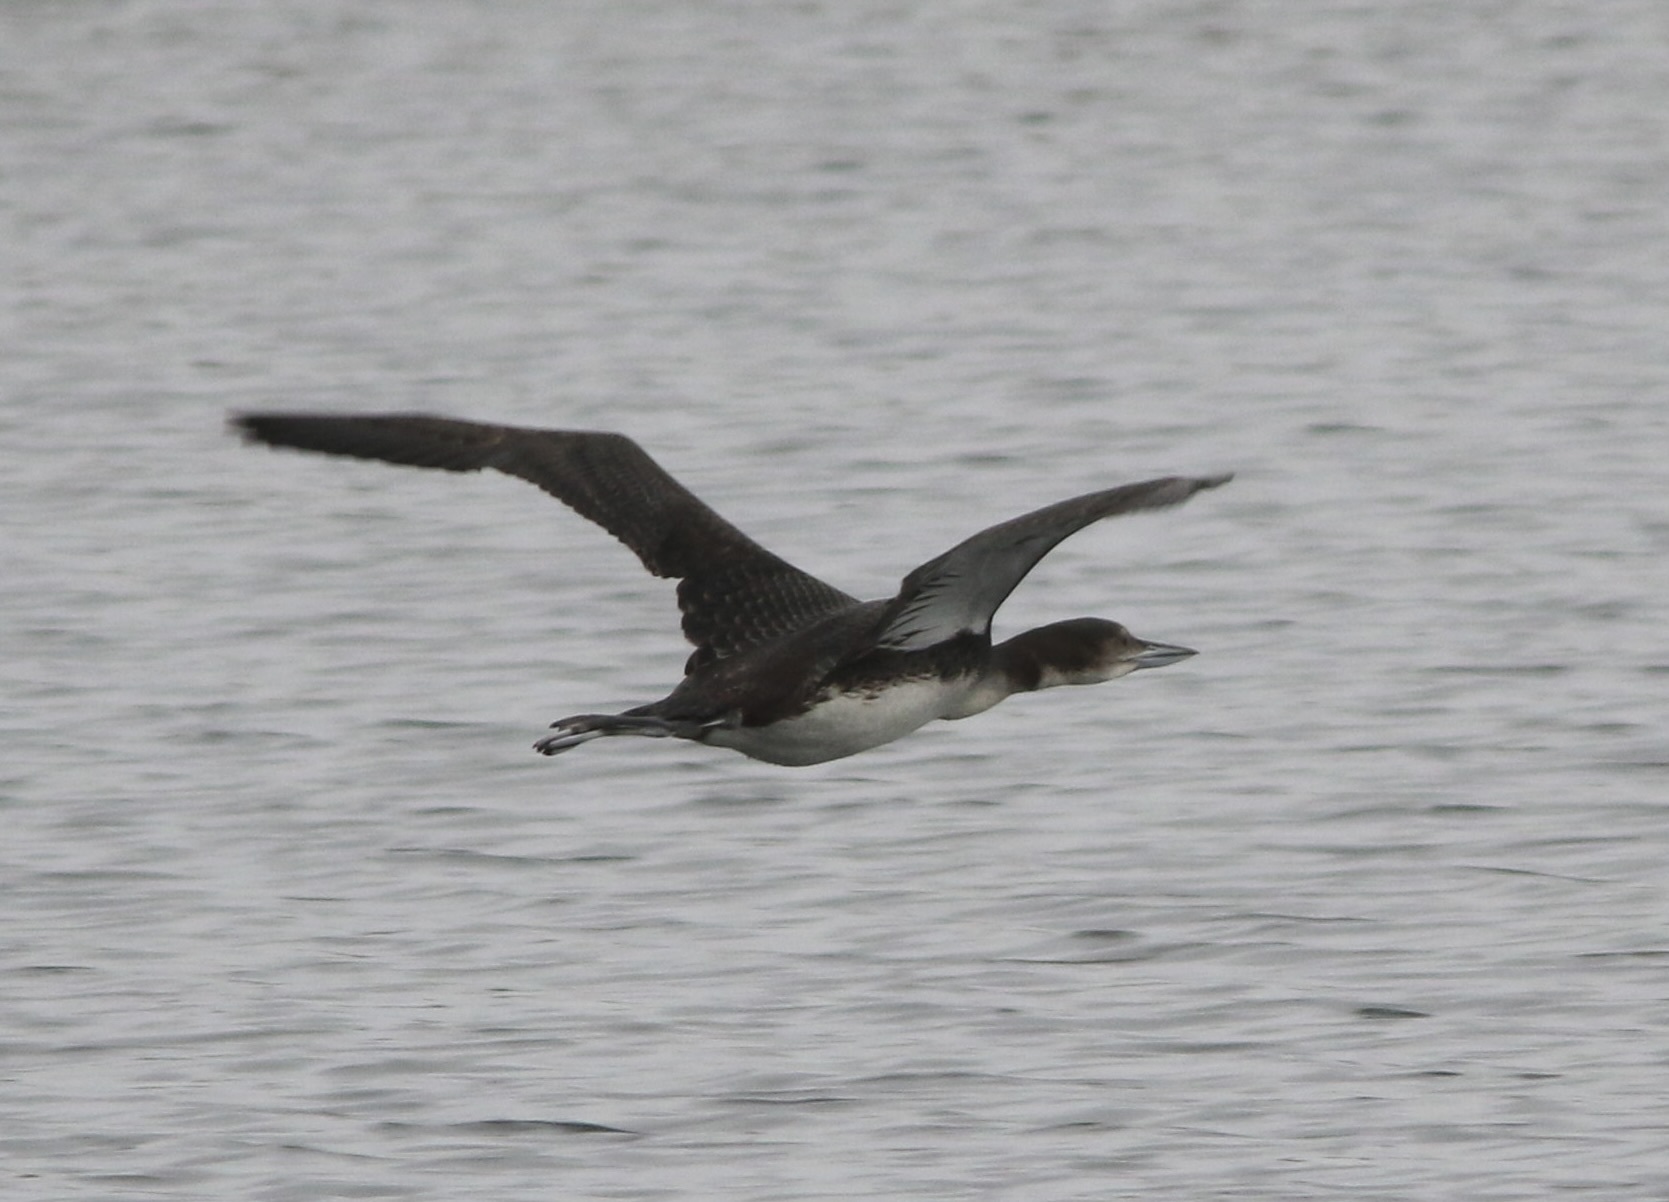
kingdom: Animalia
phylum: Chordata
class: Aves
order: Gaviiformes
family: Gaviidae
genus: Gavia
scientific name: Gavia immer
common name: Common loon
